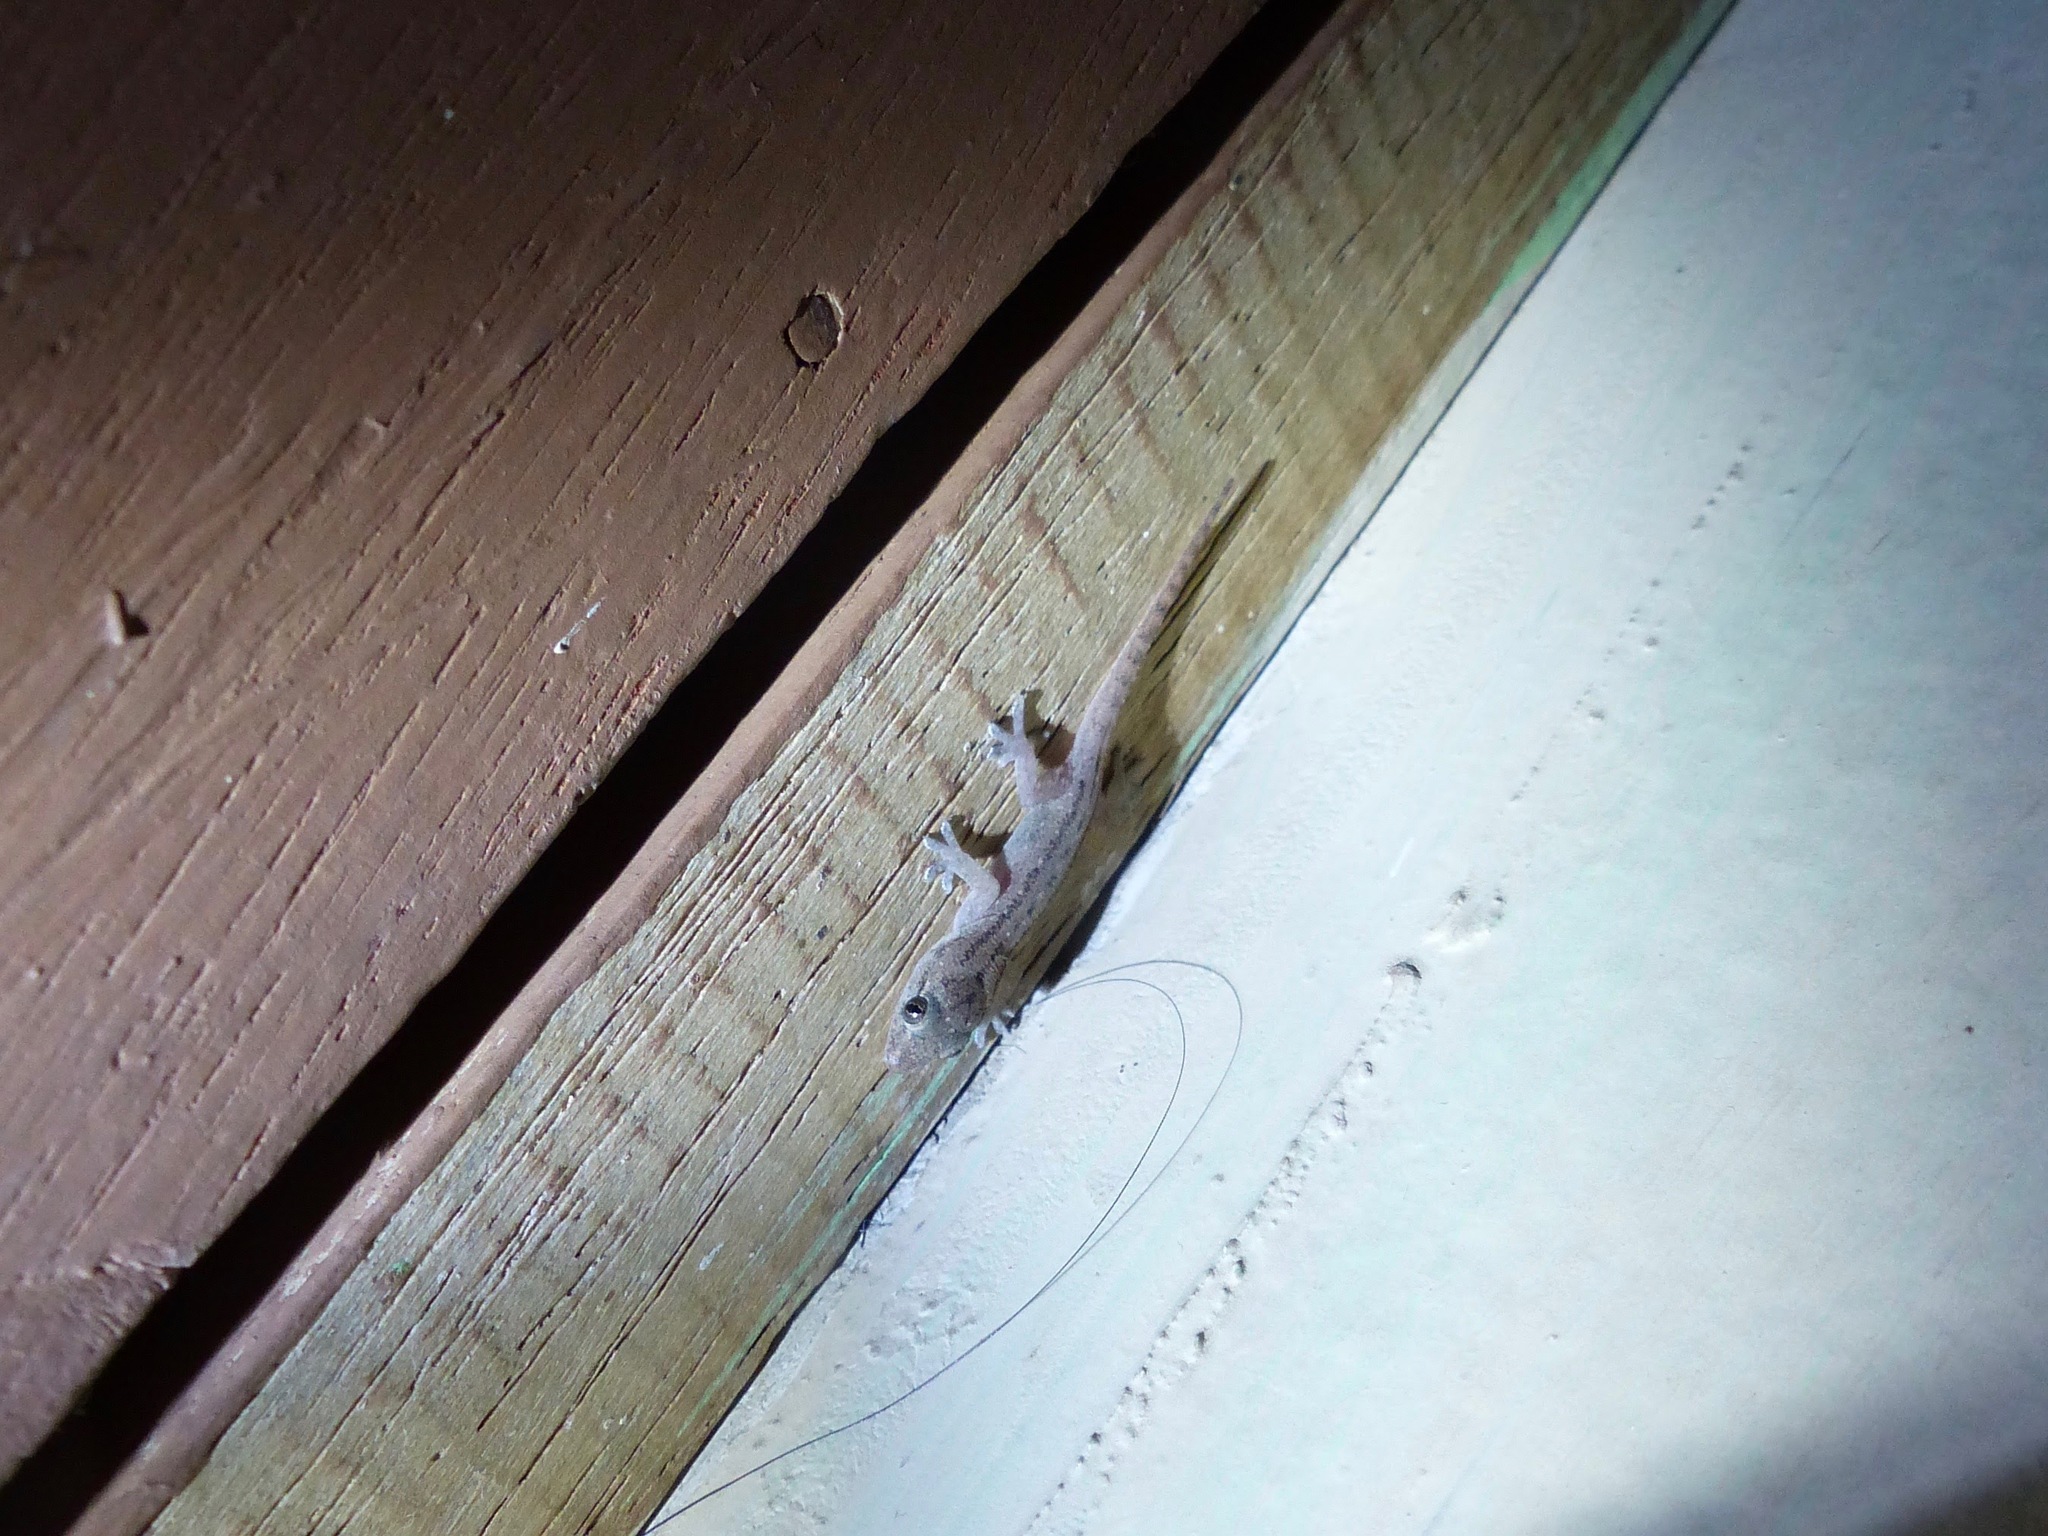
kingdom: Animalia
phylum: Chordata
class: Squamata
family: Gekkonidae
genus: Hemidactylus
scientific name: Hemidactylus frenatus
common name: Common house gecko
